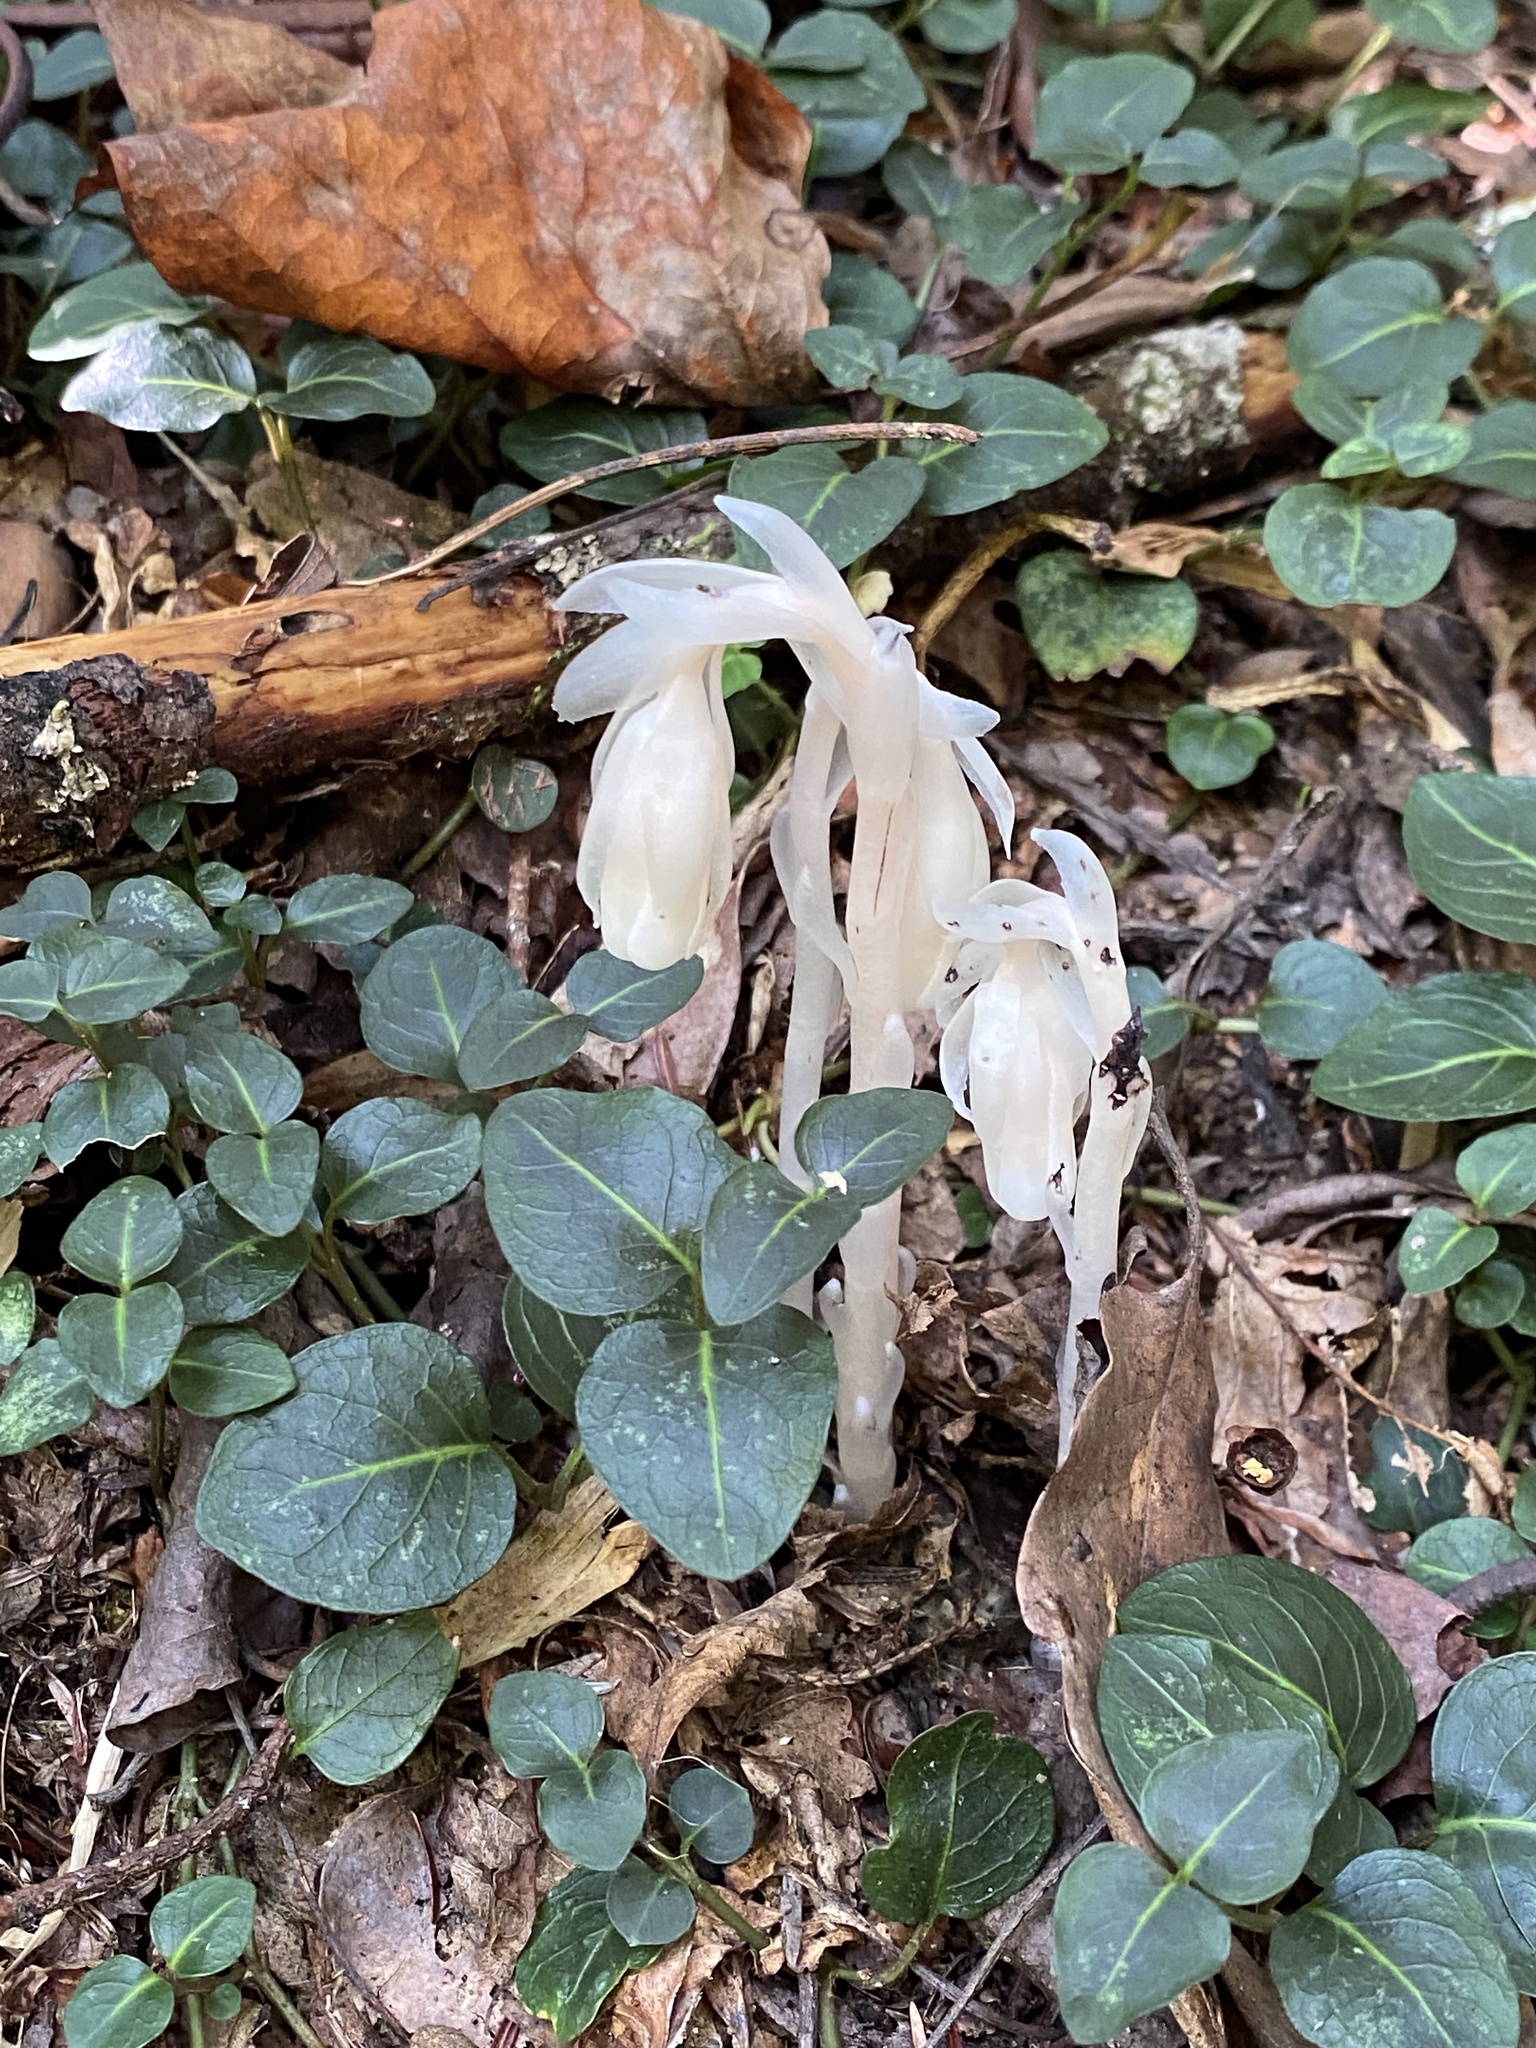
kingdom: Plantae
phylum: Tracheophyta
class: Magnoliopsida
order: Gentianales
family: Rubiaceae
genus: Mitchella
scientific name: Mitchella repens
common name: Partridge-berry
